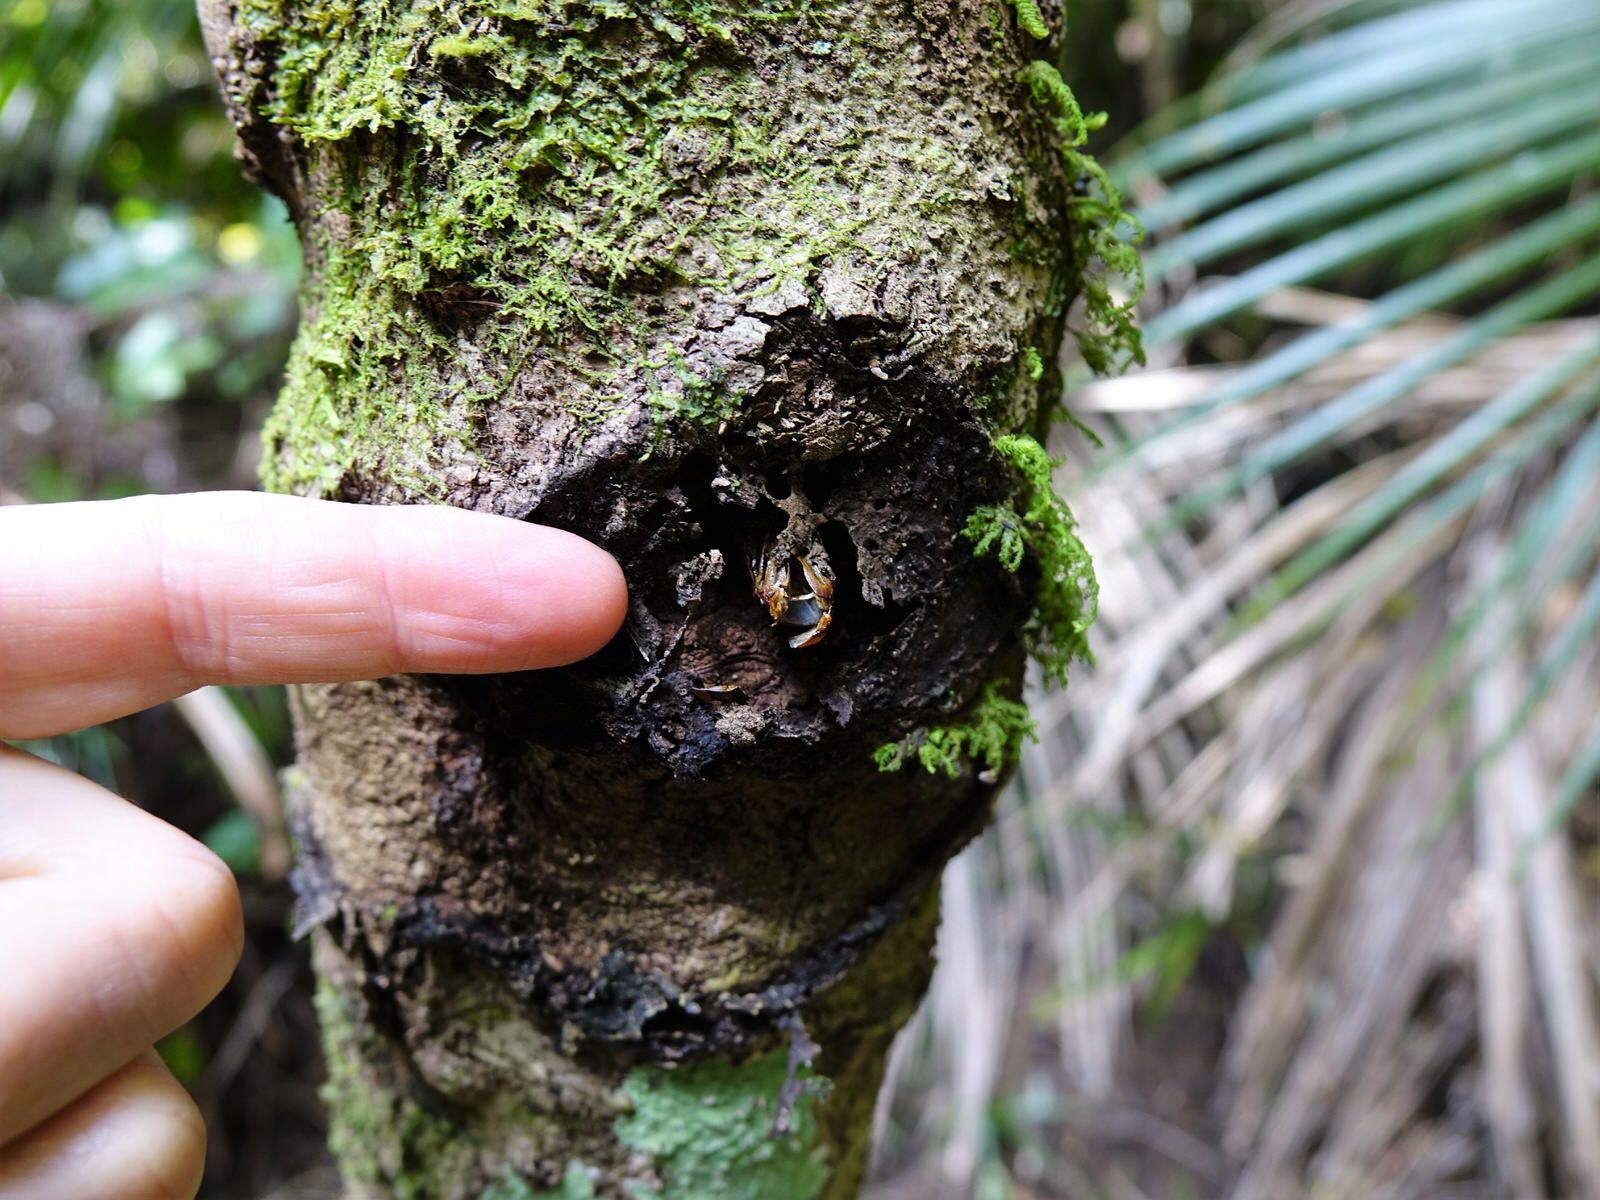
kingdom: Animalia
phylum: Arthropoda
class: Insecta
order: Lepidoptera
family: Hepialidae
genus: Aenetus
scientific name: Aenetus virescens
